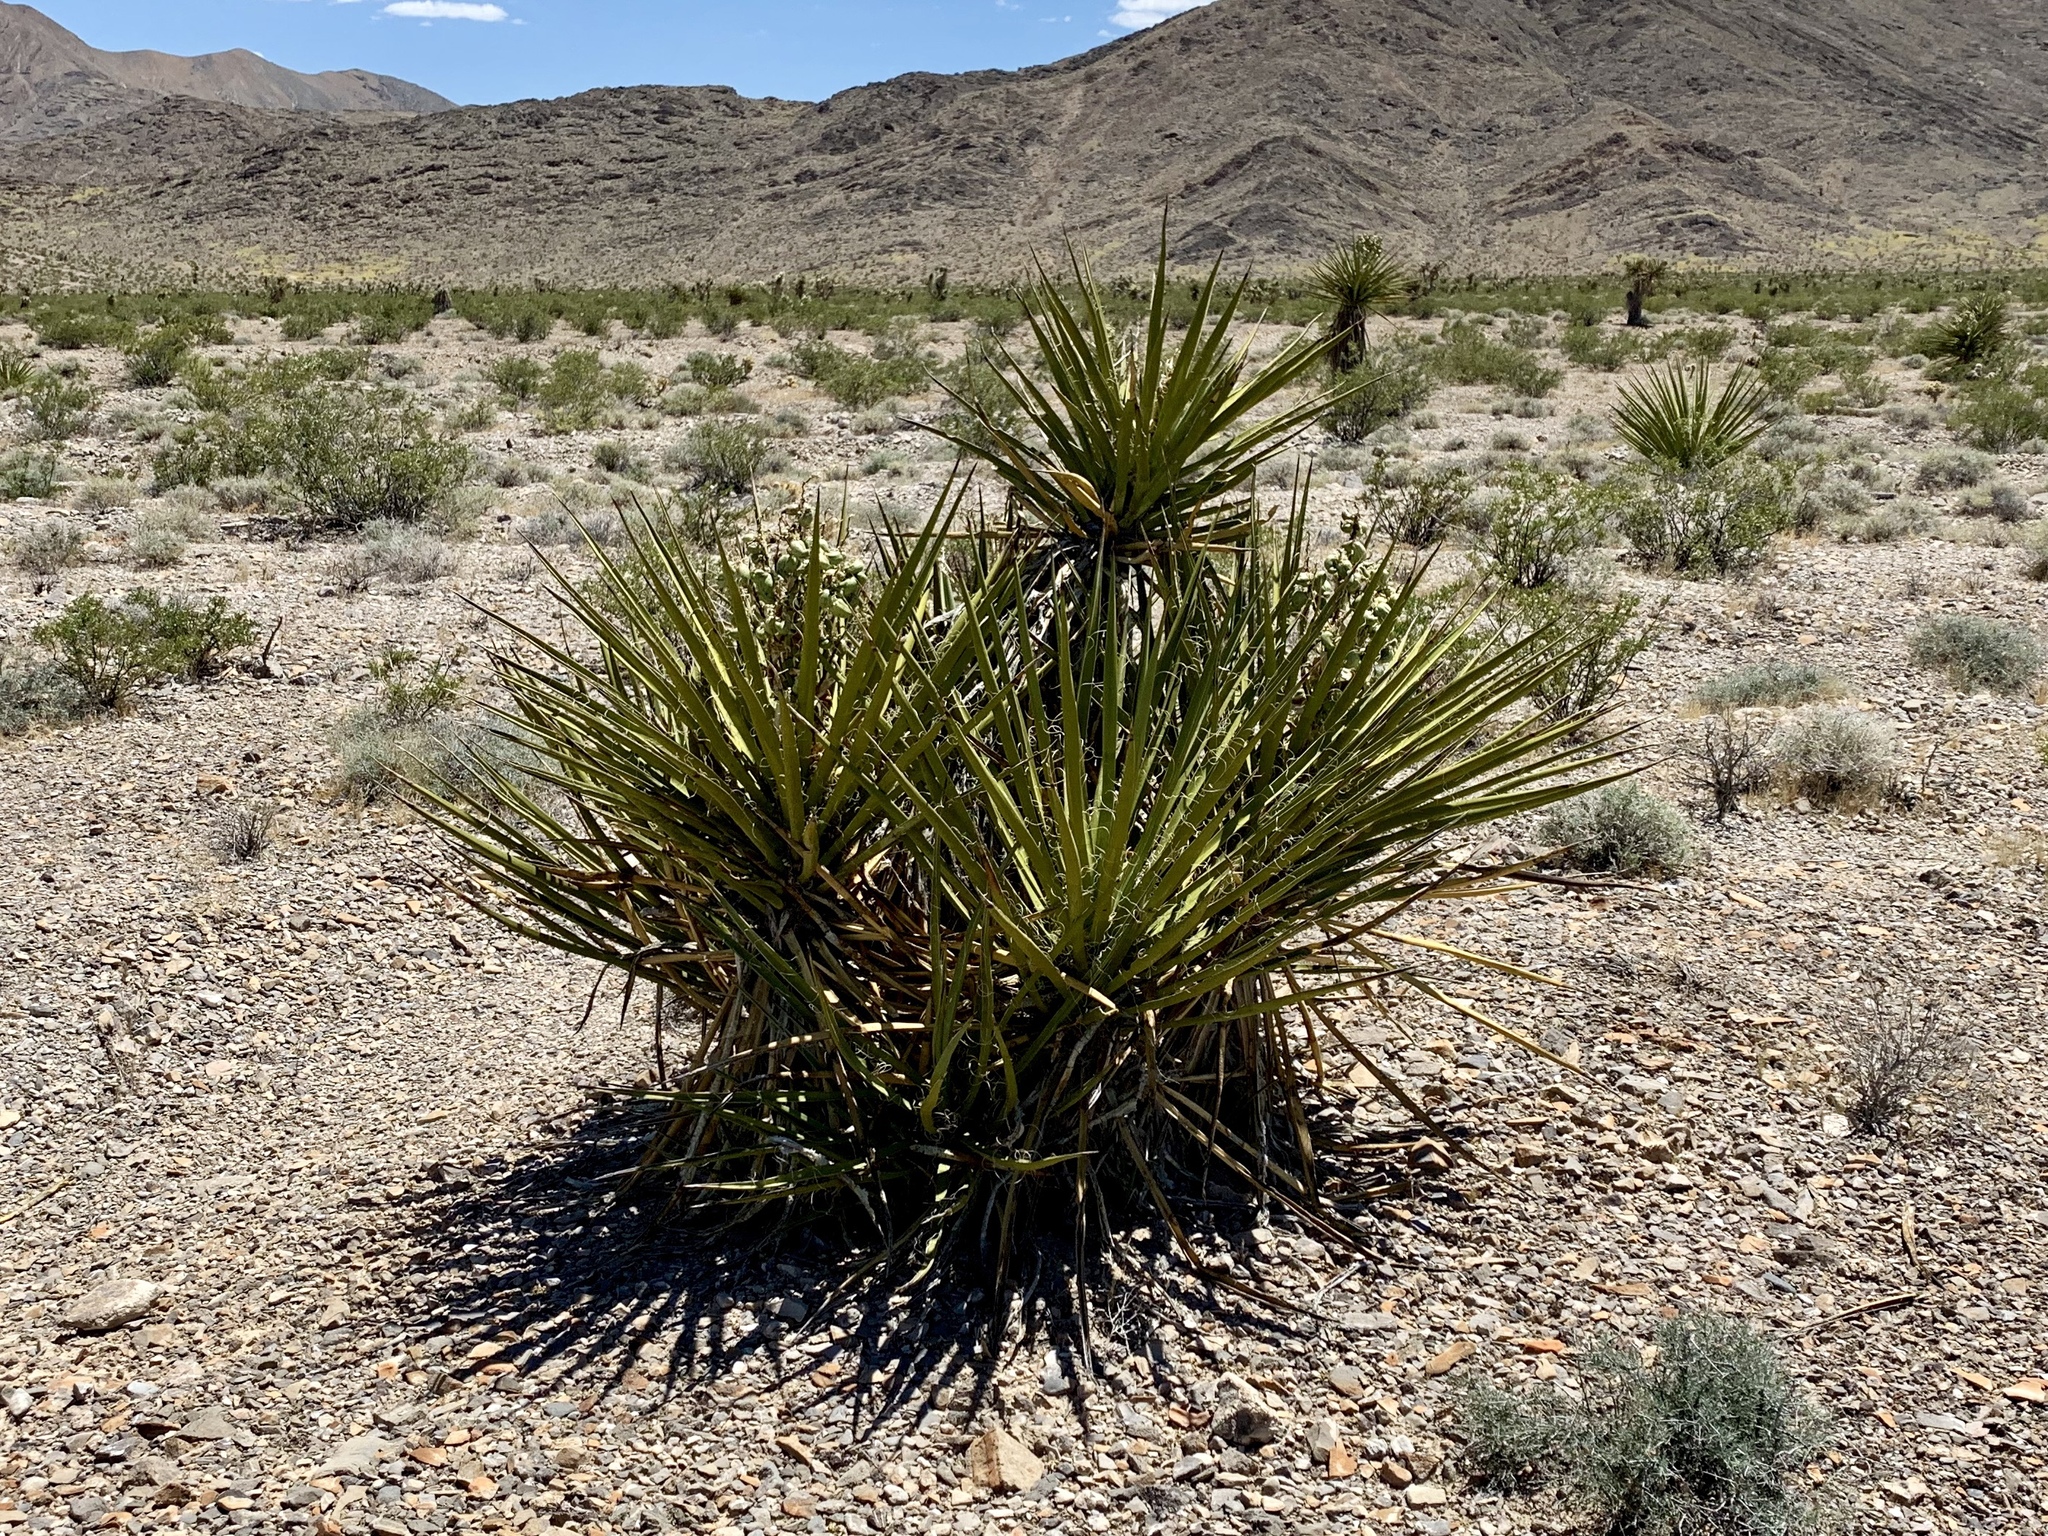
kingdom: Plantae
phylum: Tracheophyta
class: Liliopsida
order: Asparagales
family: Asparagaceae
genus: Yucca
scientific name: Yucca schidigera
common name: Mojave yucca
